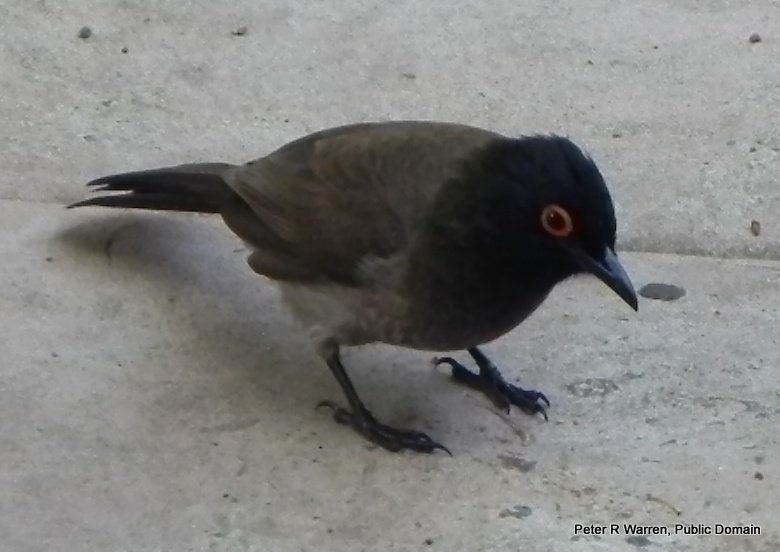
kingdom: Animalia
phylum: Chordata
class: Aves
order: Passeriformes
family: Pycnonotidae
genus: Pycnonotus
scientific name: Pycnonotus nigricans
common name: African red-eyed bulbul
